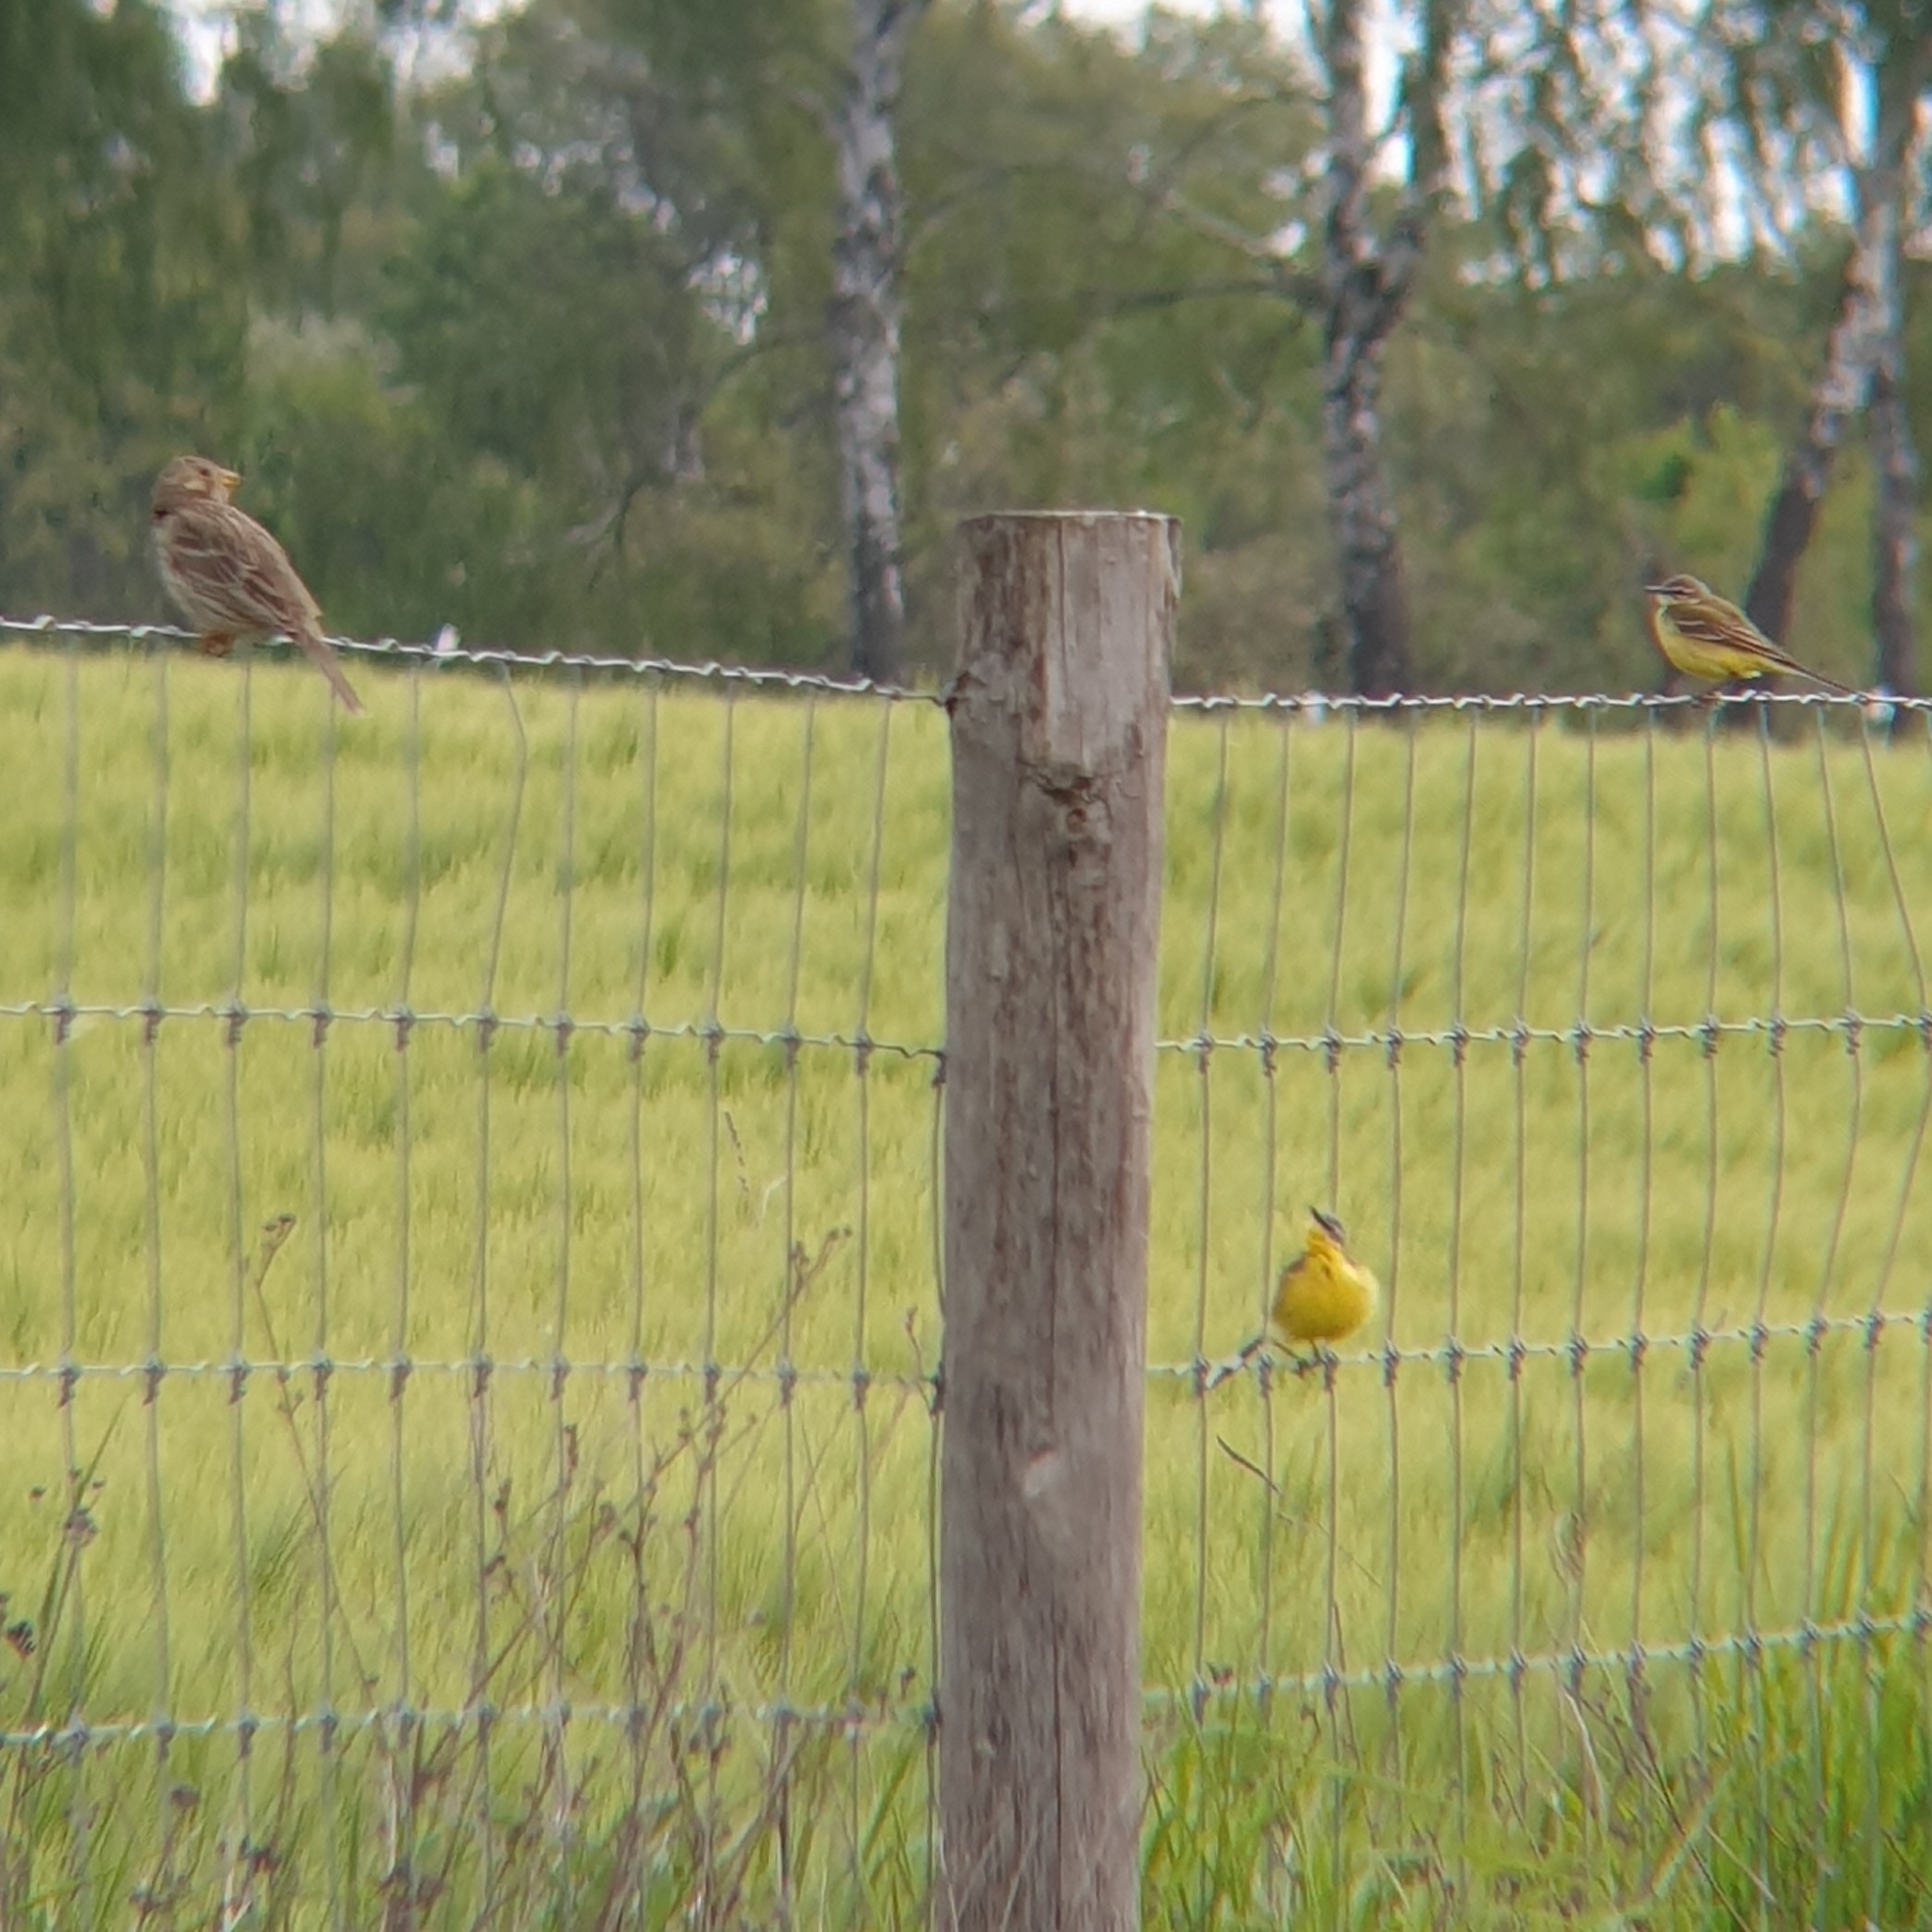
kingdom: Animalia
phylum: Chordata
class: Aves
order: Passeriformes
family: Motacillidae
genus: Motacilla
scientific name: Motacilla flava
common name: Western yellow wagtail
